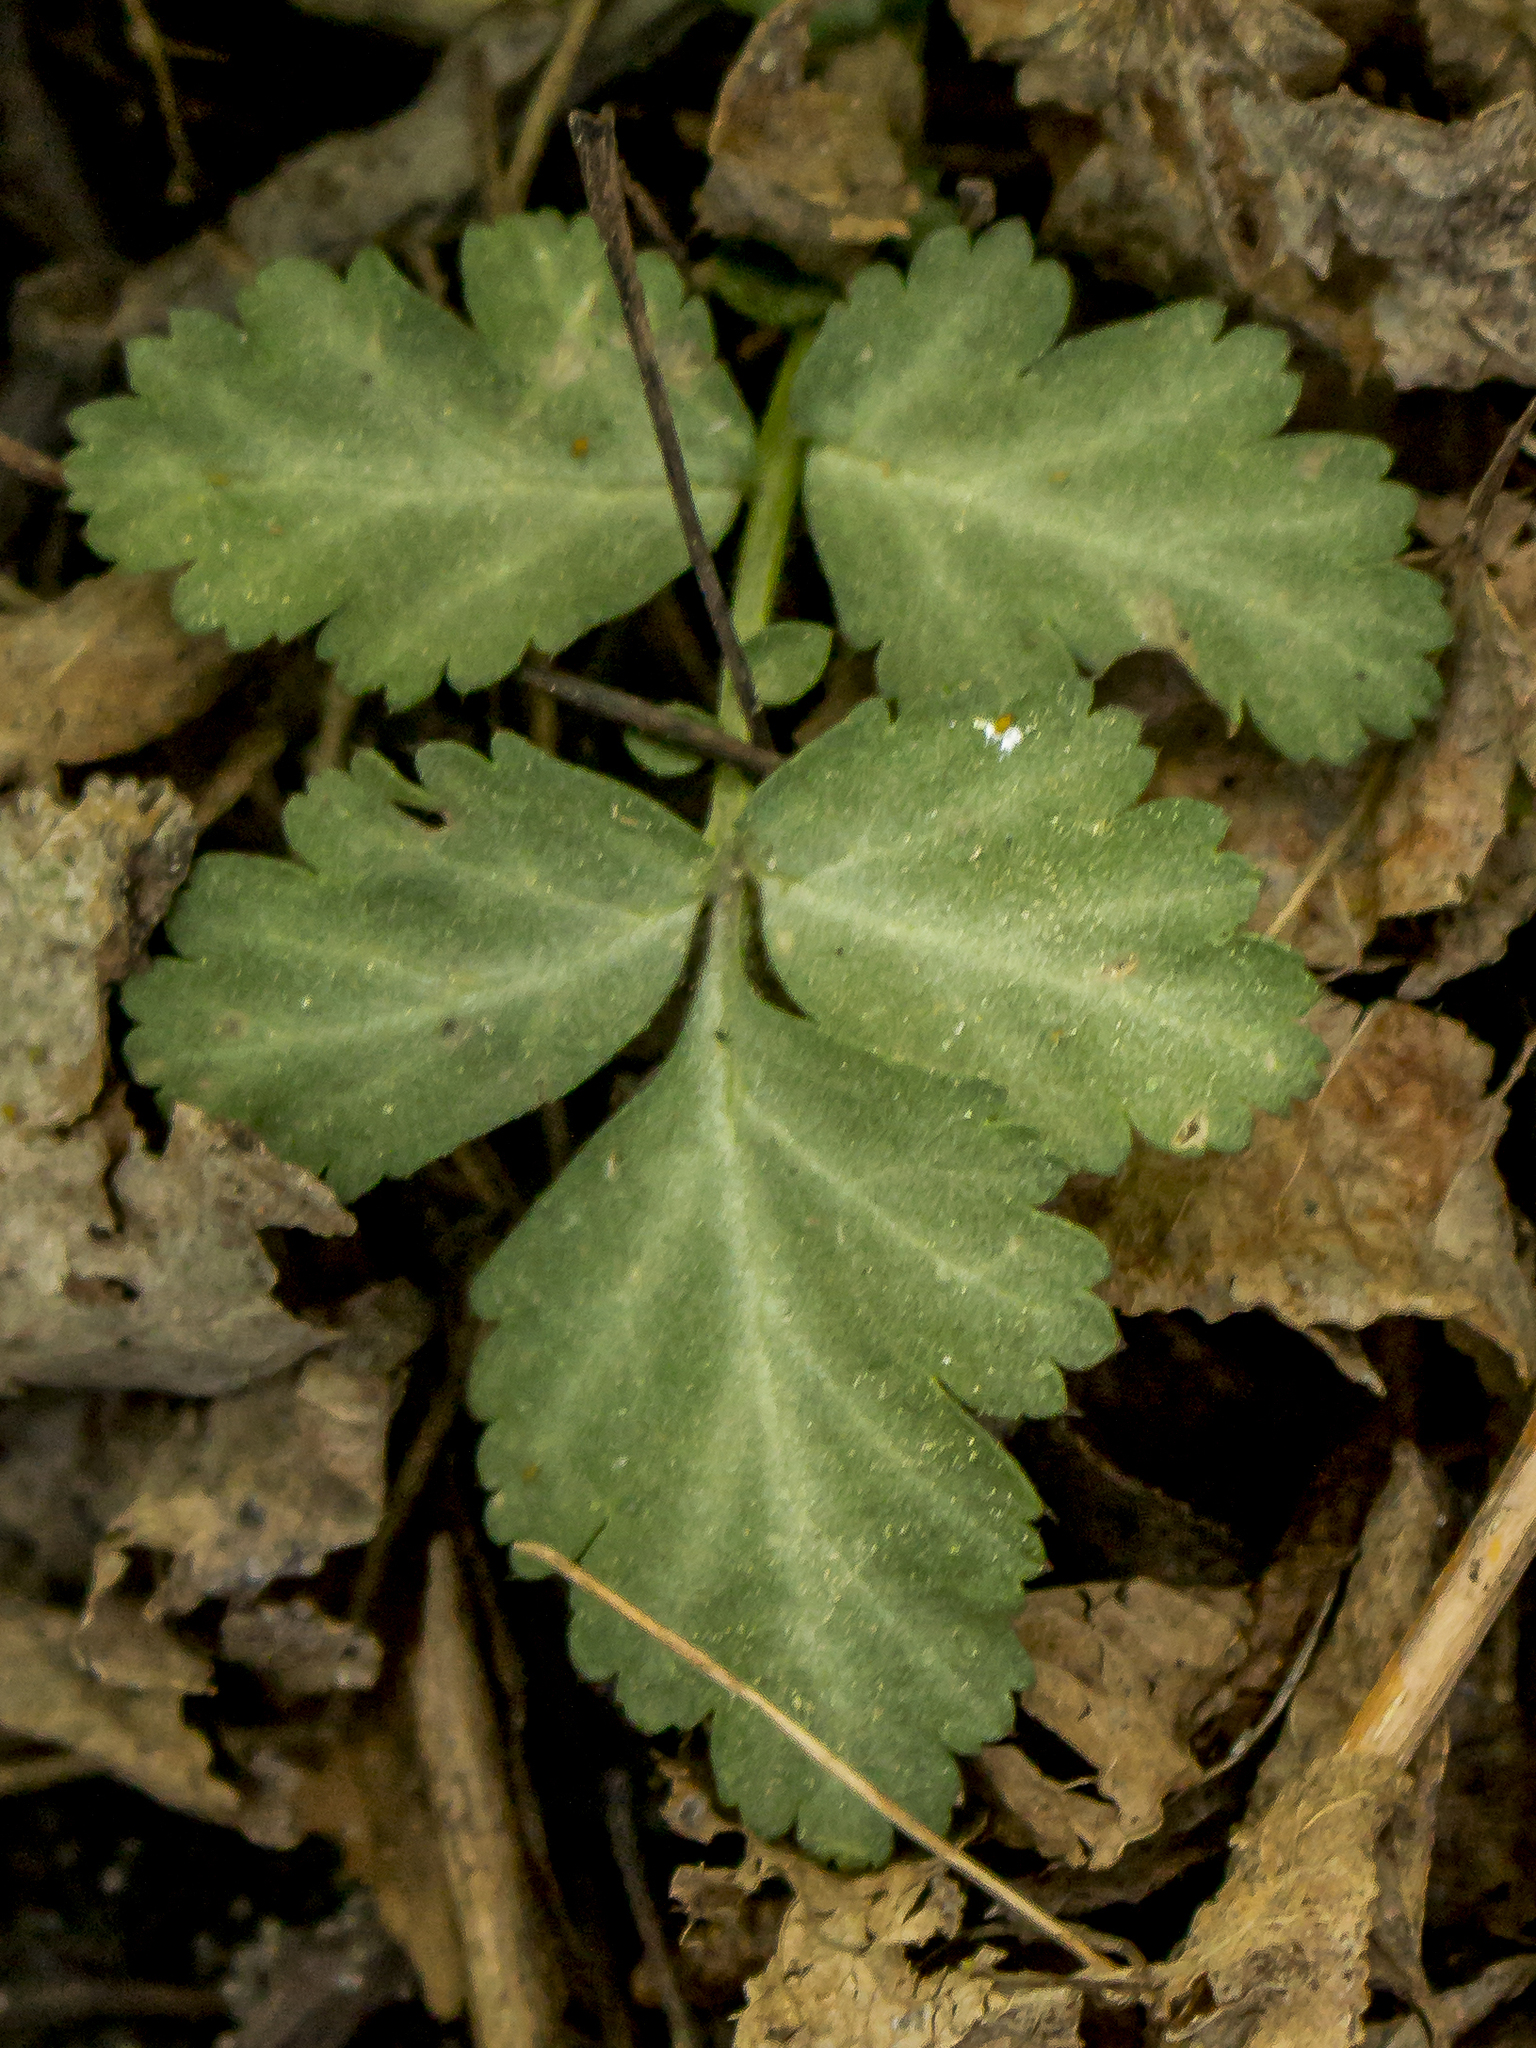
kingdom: Plantae
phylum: Tracheophyta
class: Magnoliopsida
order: Rosales
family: Rosaceae
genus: Geum
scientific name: Geum canadense
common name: White avens
